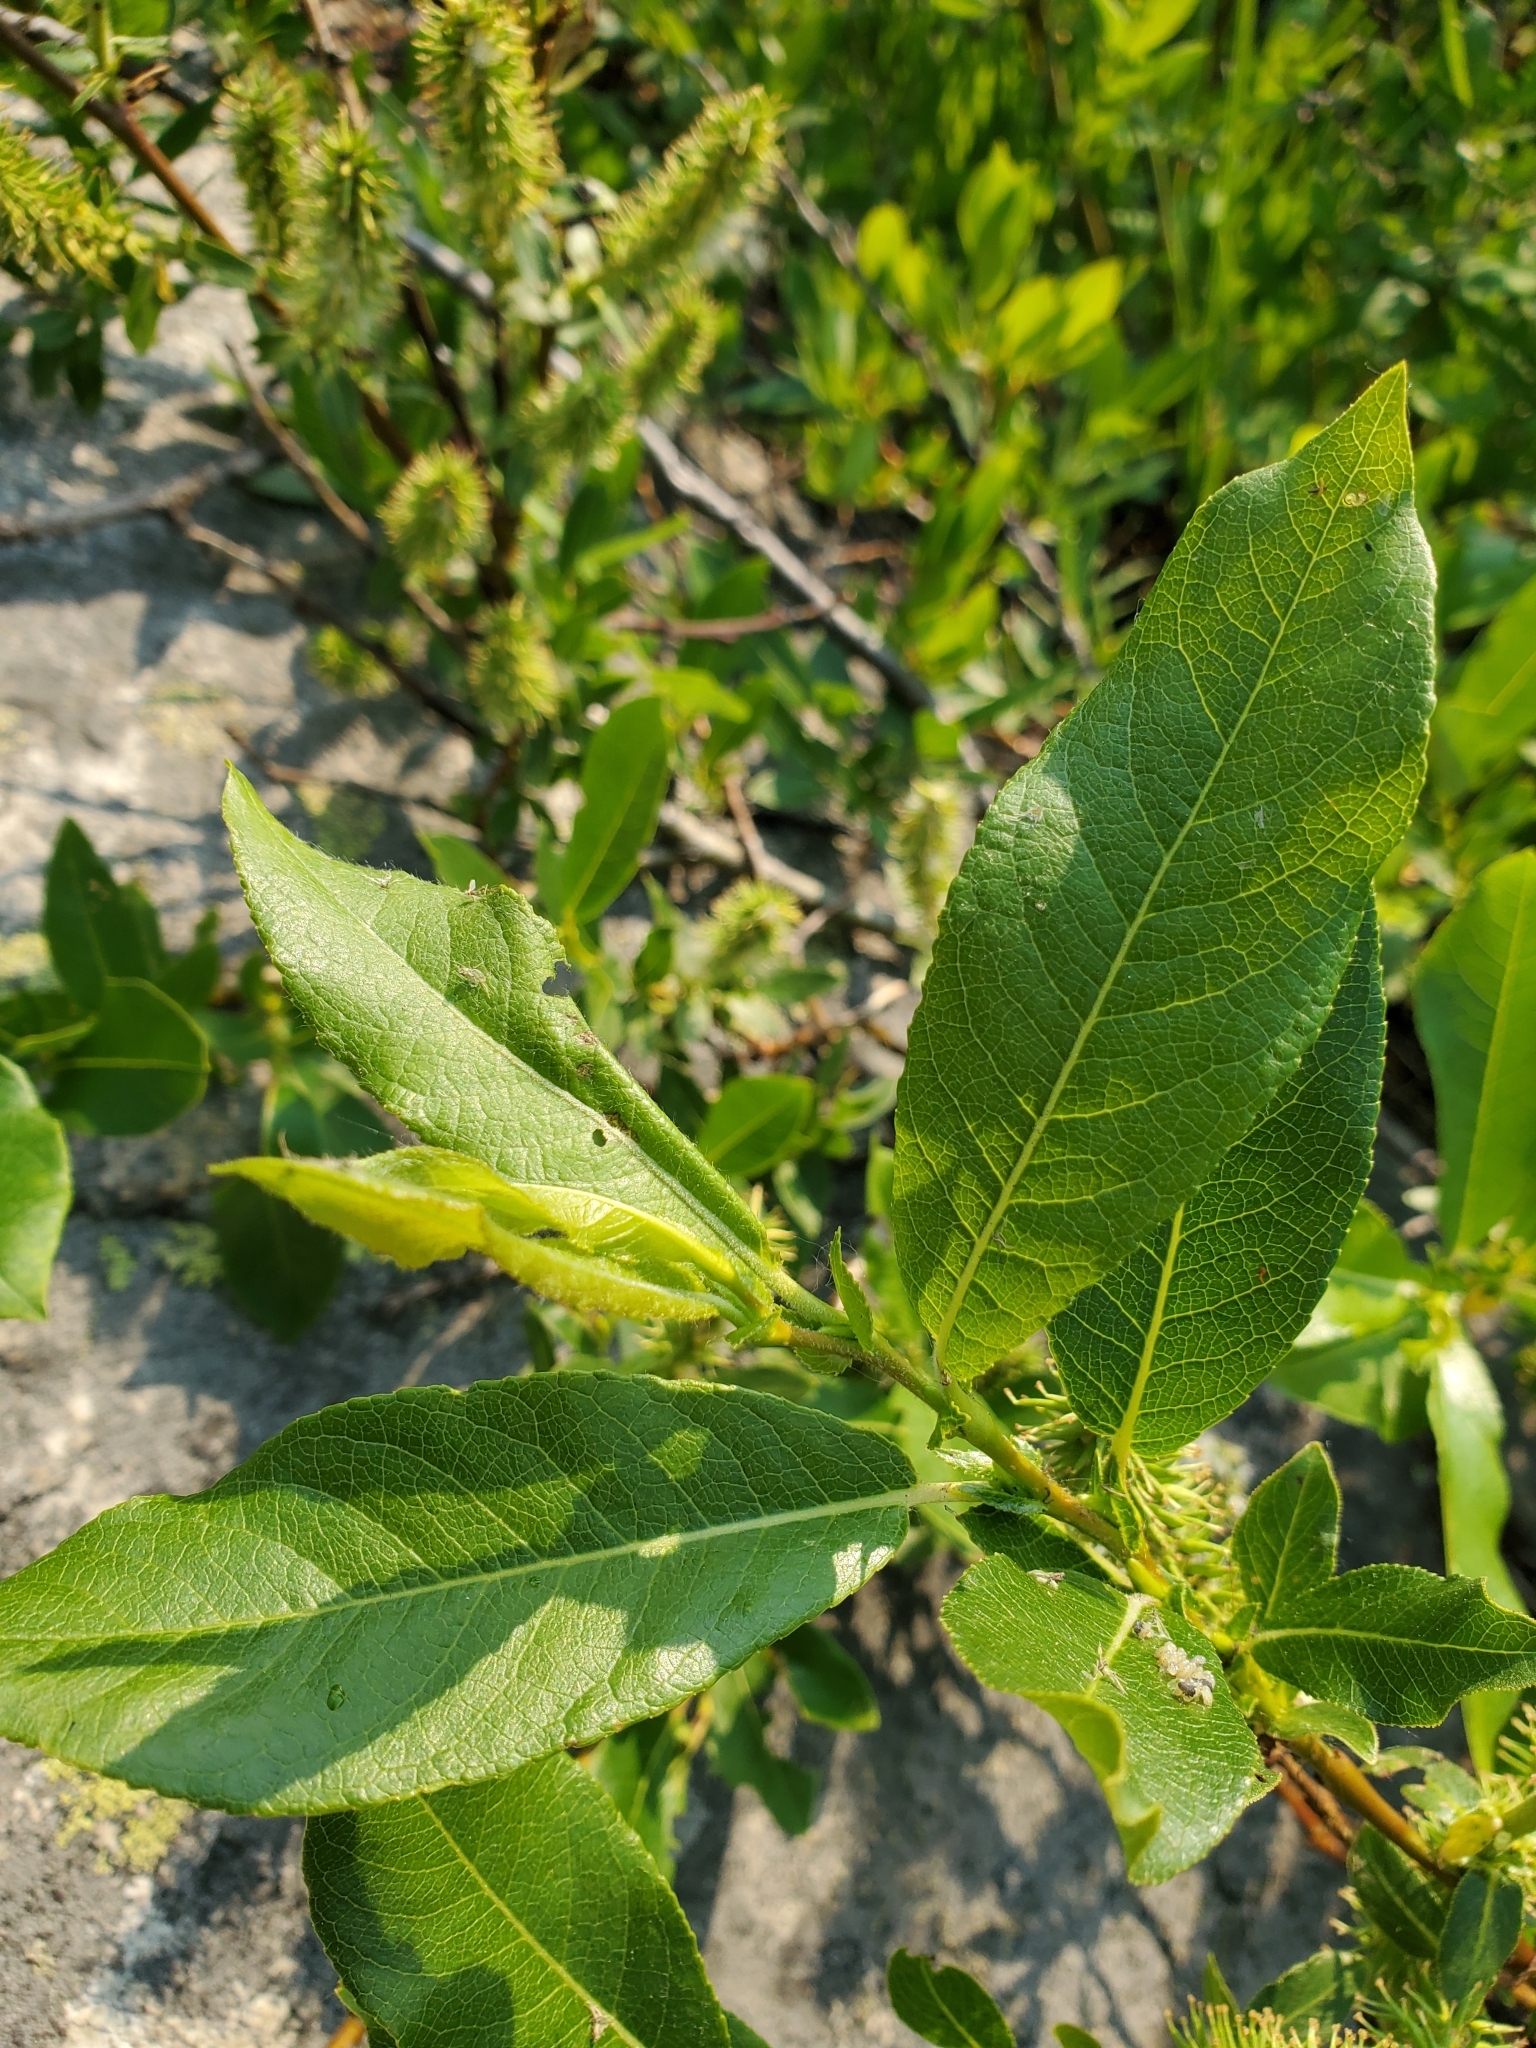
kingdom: Plantae
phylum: Tracheophyta
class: Magnoliopsida
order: Malpighiales
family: Salicaceae
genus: Salix
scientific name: Salix boothii
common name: Booth's willow
